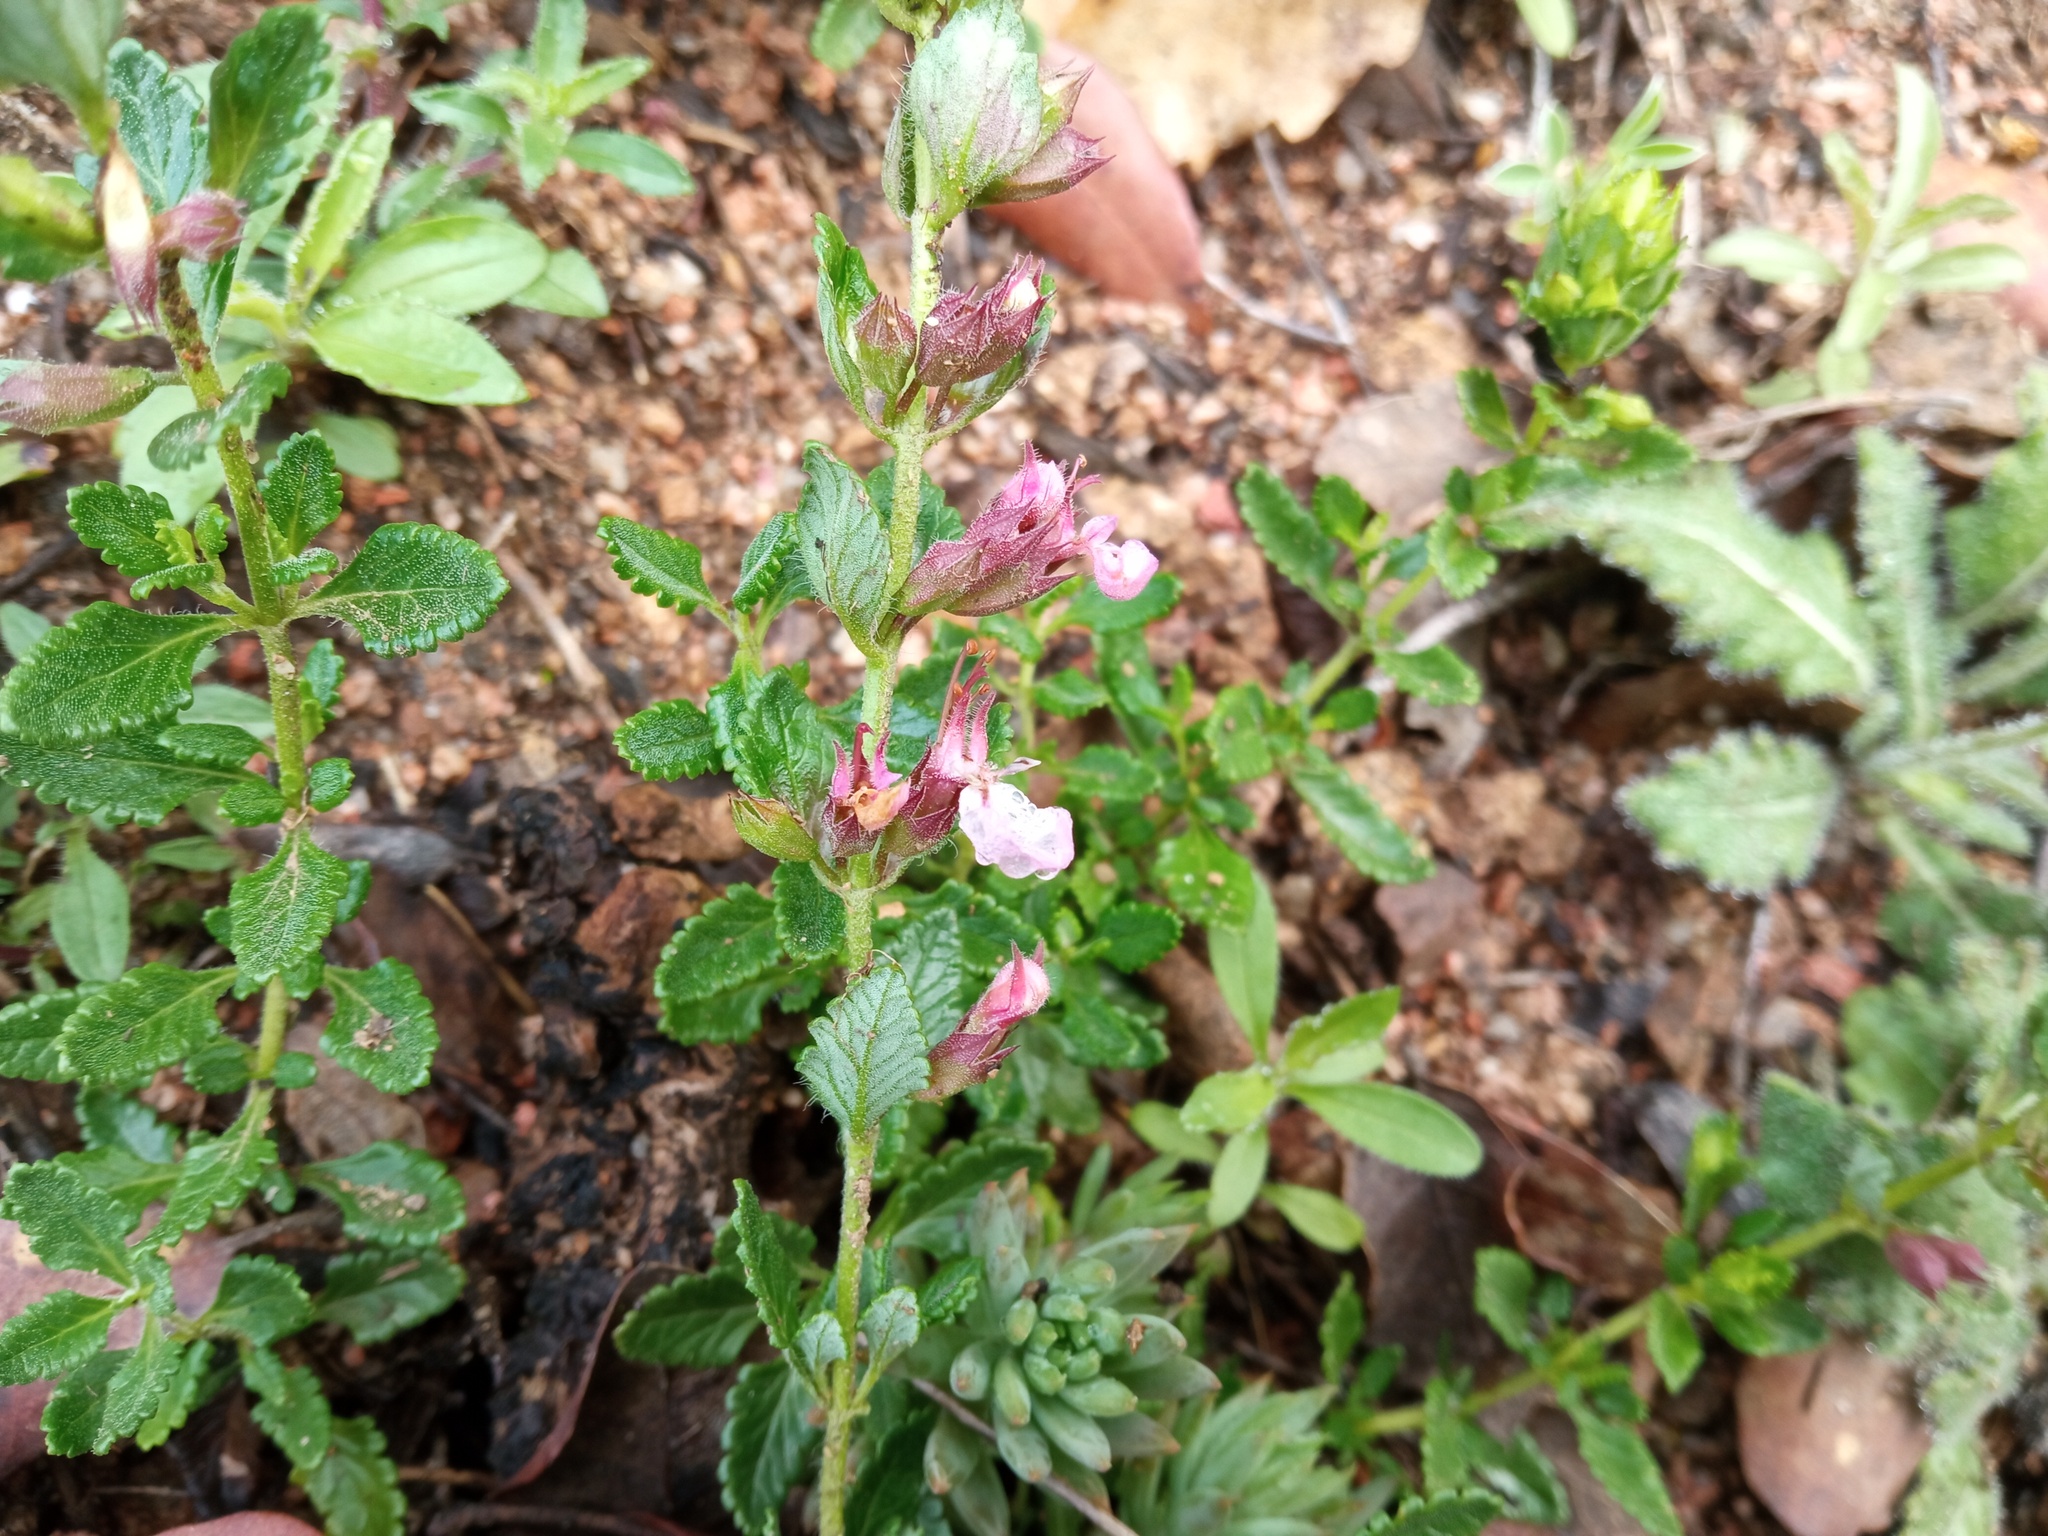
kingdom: Plantae
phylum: Tracheophyta
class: Magnoliopsida
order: Lamiales
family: Lamiaceae
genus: Teucrium
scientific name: Teucrium chamaedrys
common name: Wall germander
